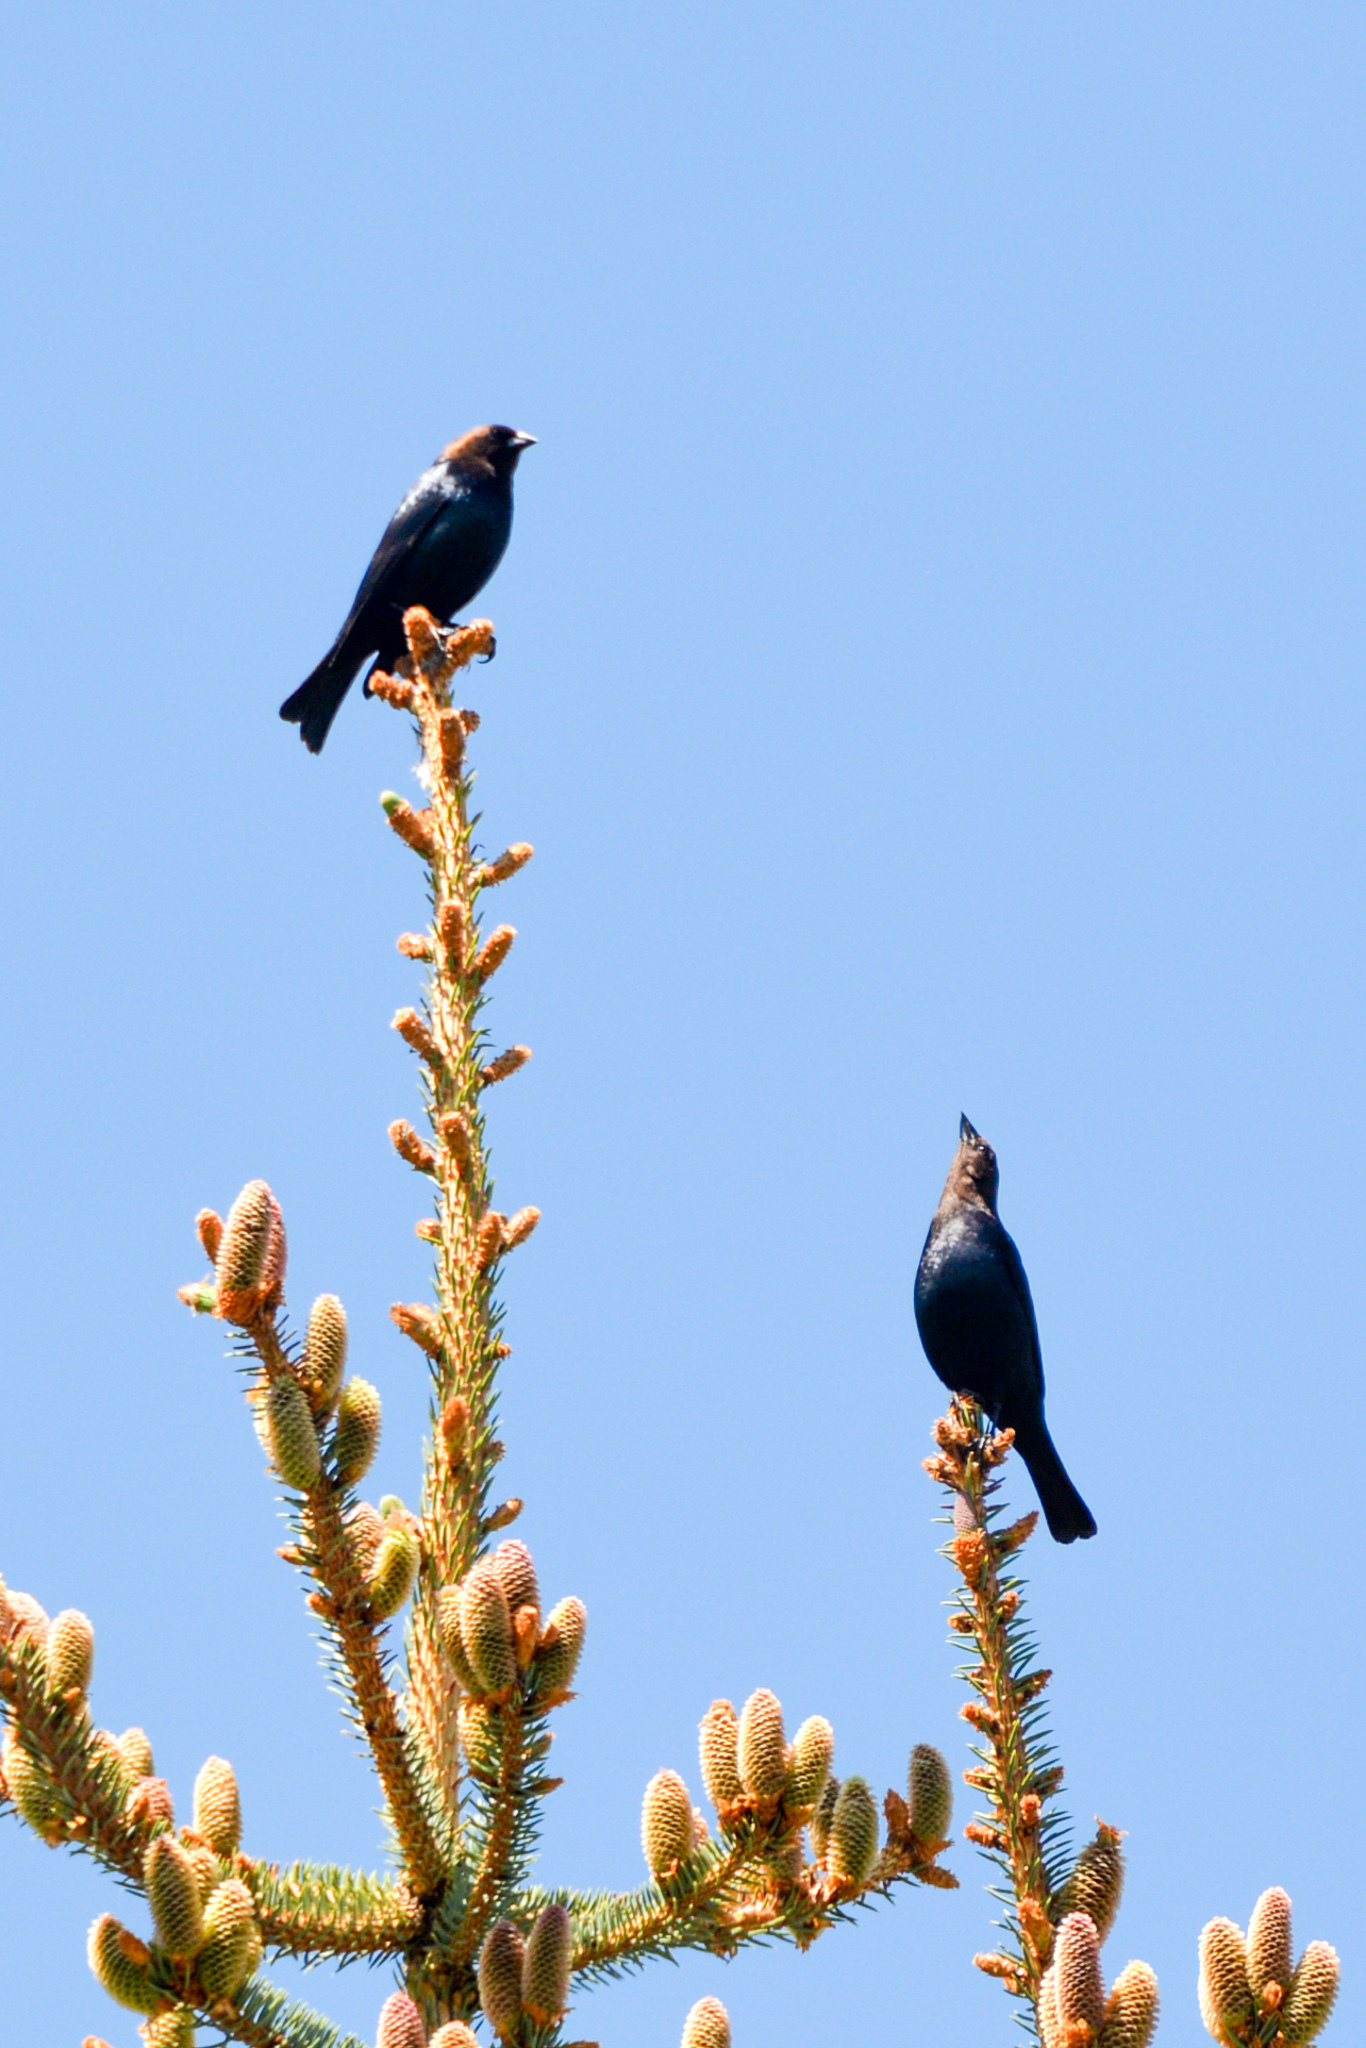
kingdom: Animalia
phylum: Chordata
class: Aves
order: Passeriformes
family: Icteridae
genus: Molothrus
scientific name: Molothrus ater
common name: Brown-headed cowbird
